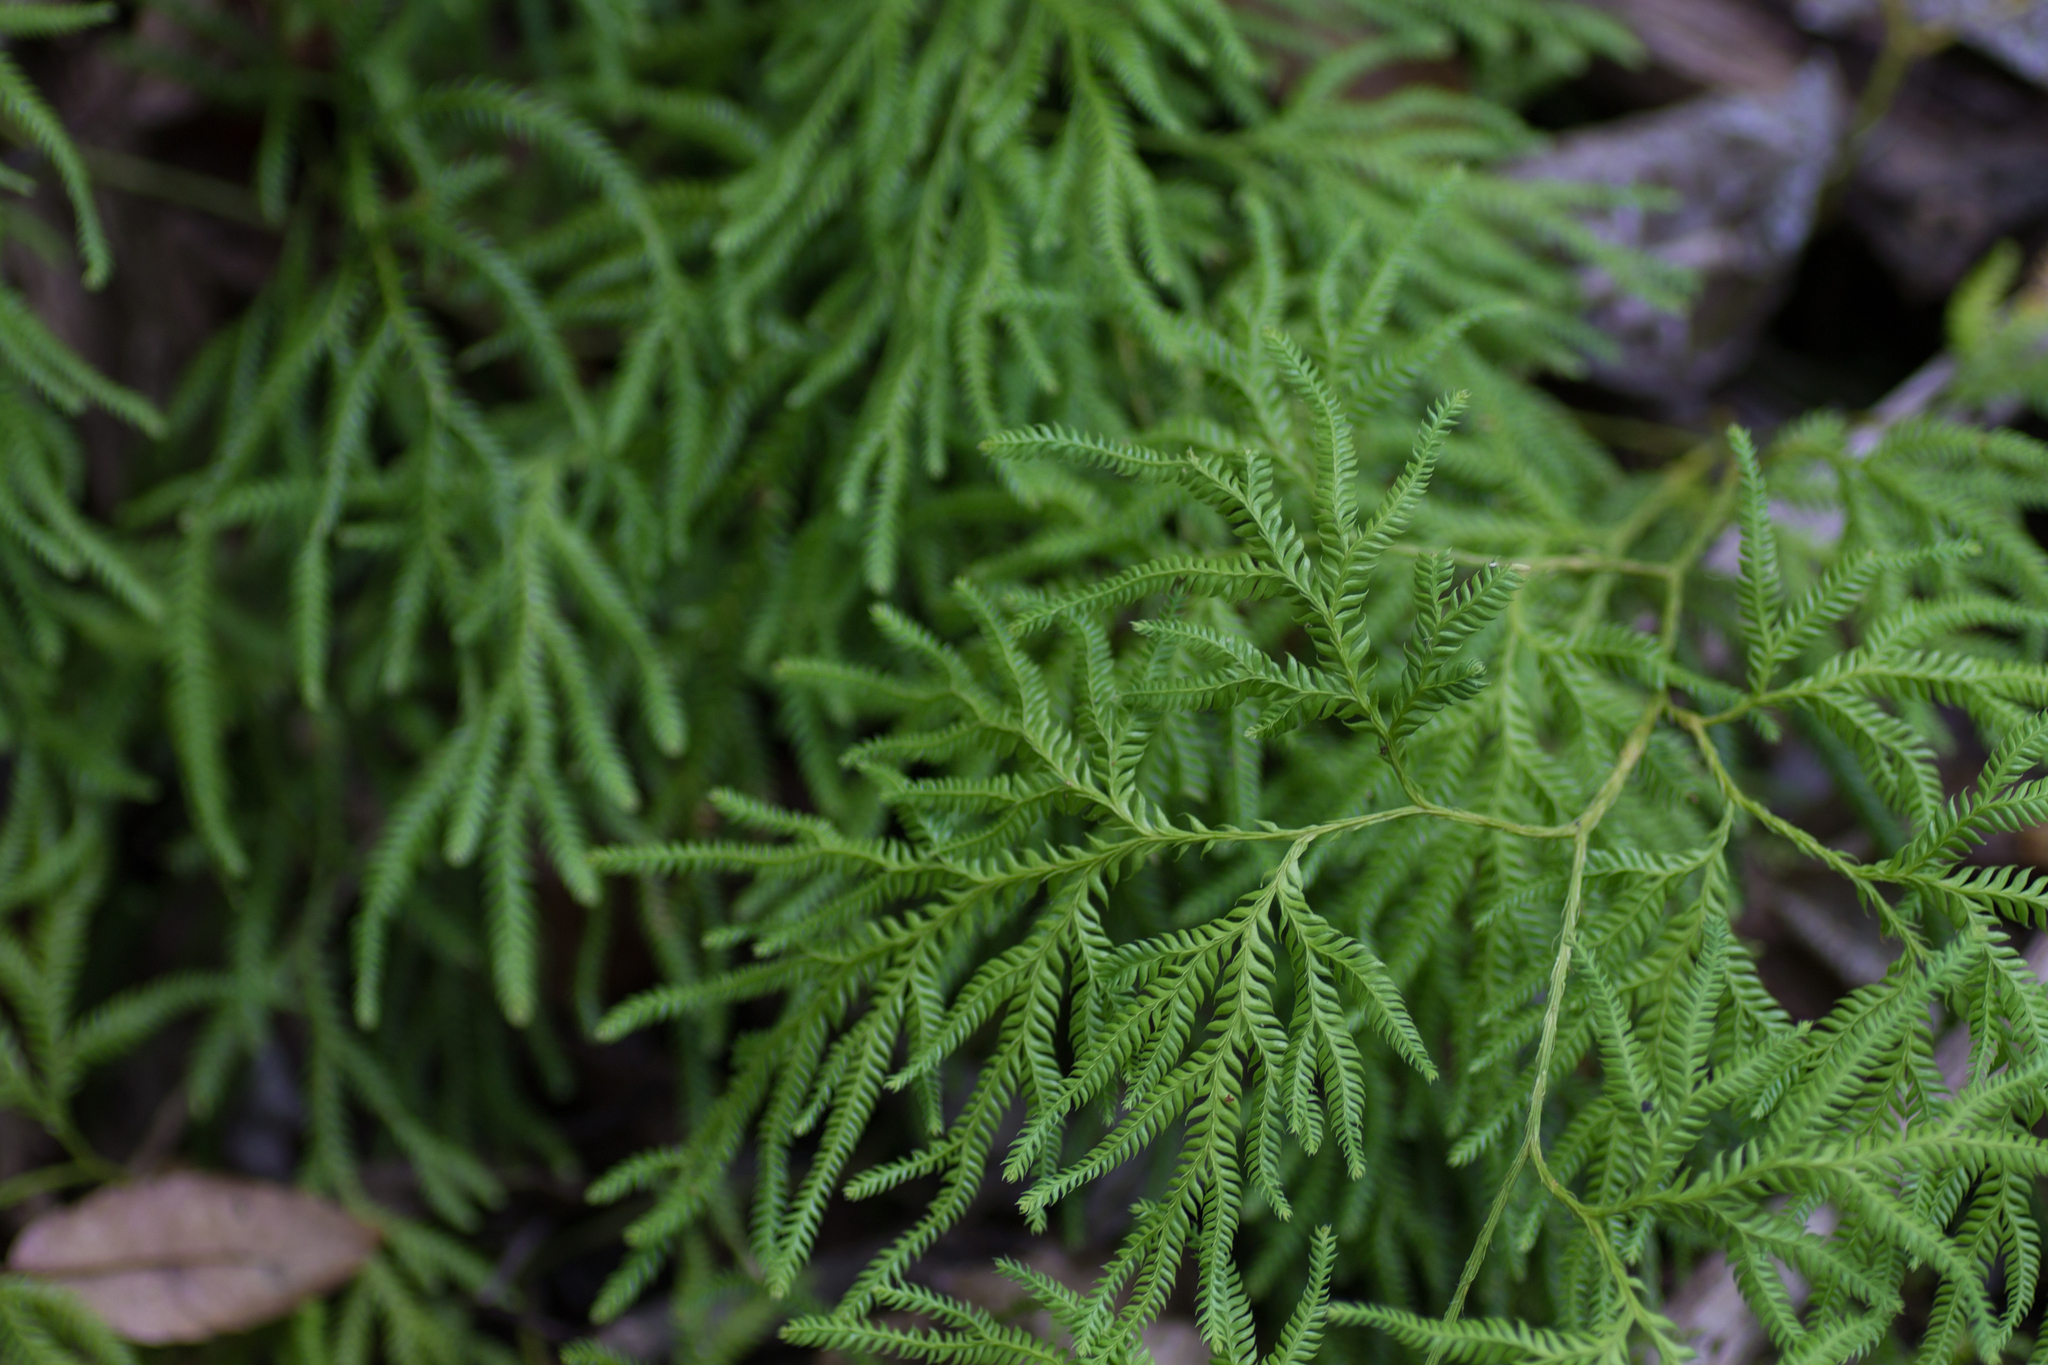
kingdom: Plantae
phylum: Tracheophyta
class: Lycopodiopsida
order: Lycopodiales
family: Lycopodiaceae
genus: Lycopodium
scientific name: Lycopodium volubile
